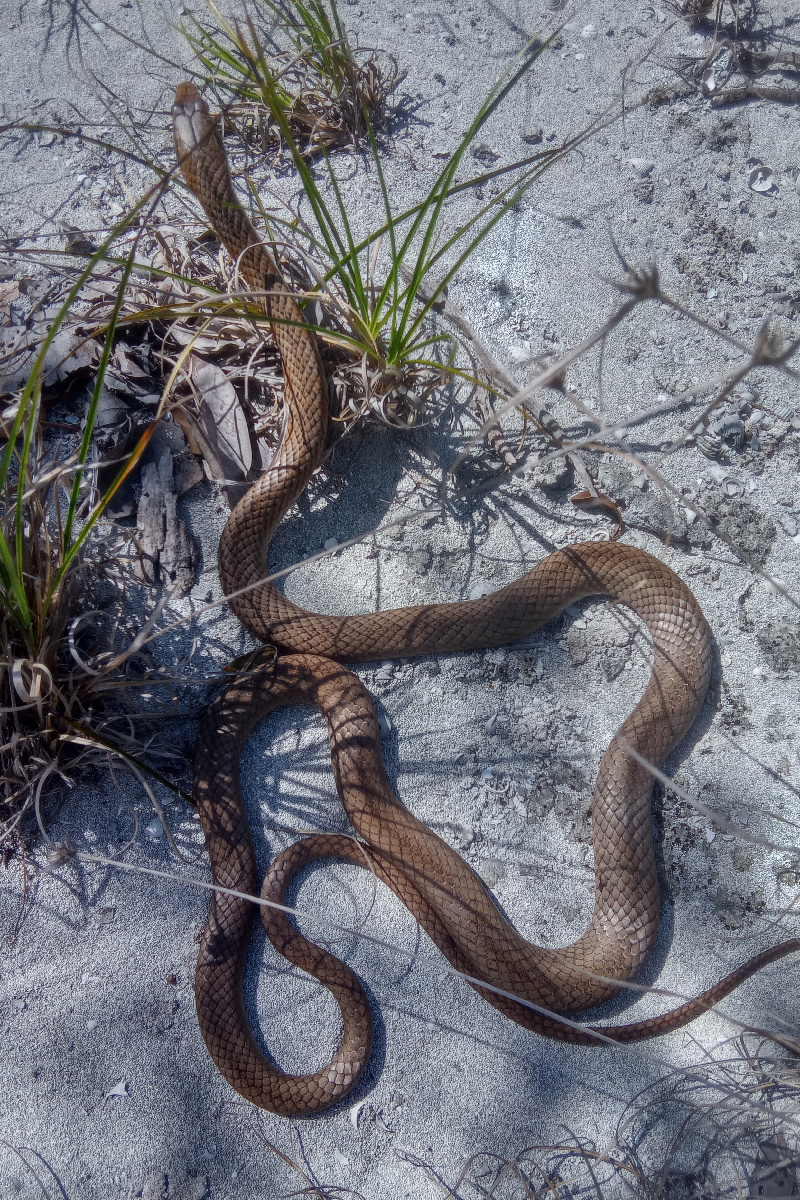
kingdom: Animalia
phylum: Chordata
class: Squamata
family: Colubridae
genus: Cubophis
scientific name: Cubophis vudii
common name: Bahamian racer
